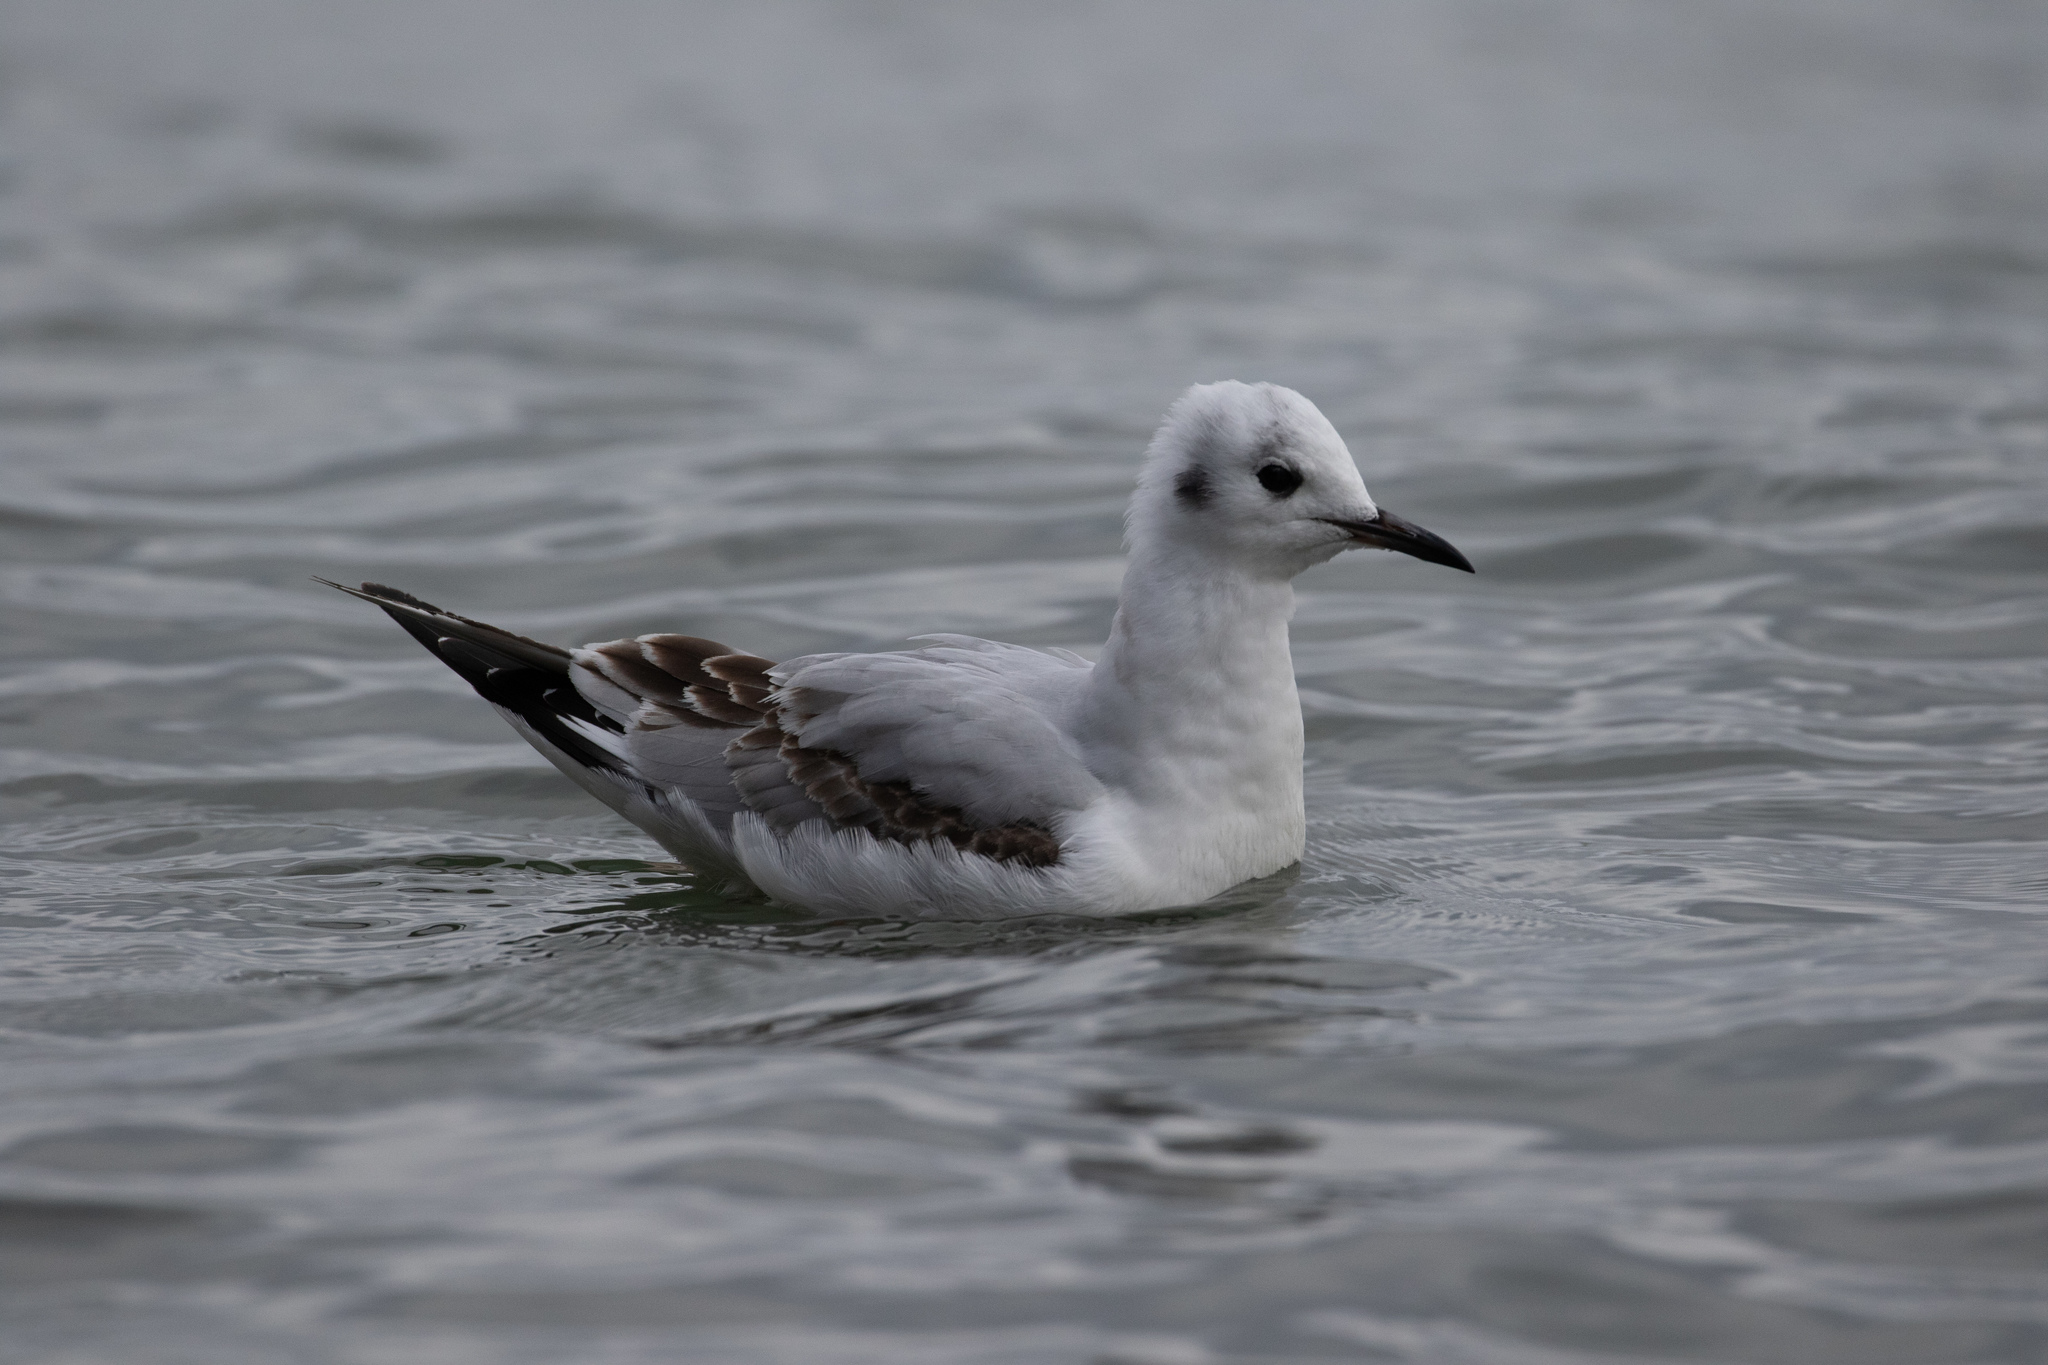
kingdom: Animalia
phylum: Chordata
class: Aves
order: Charadriiformes
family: Laridae
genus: Chroicocephalus
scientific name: Chroicocephalus philadelphia
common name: Bonaparte's gull
